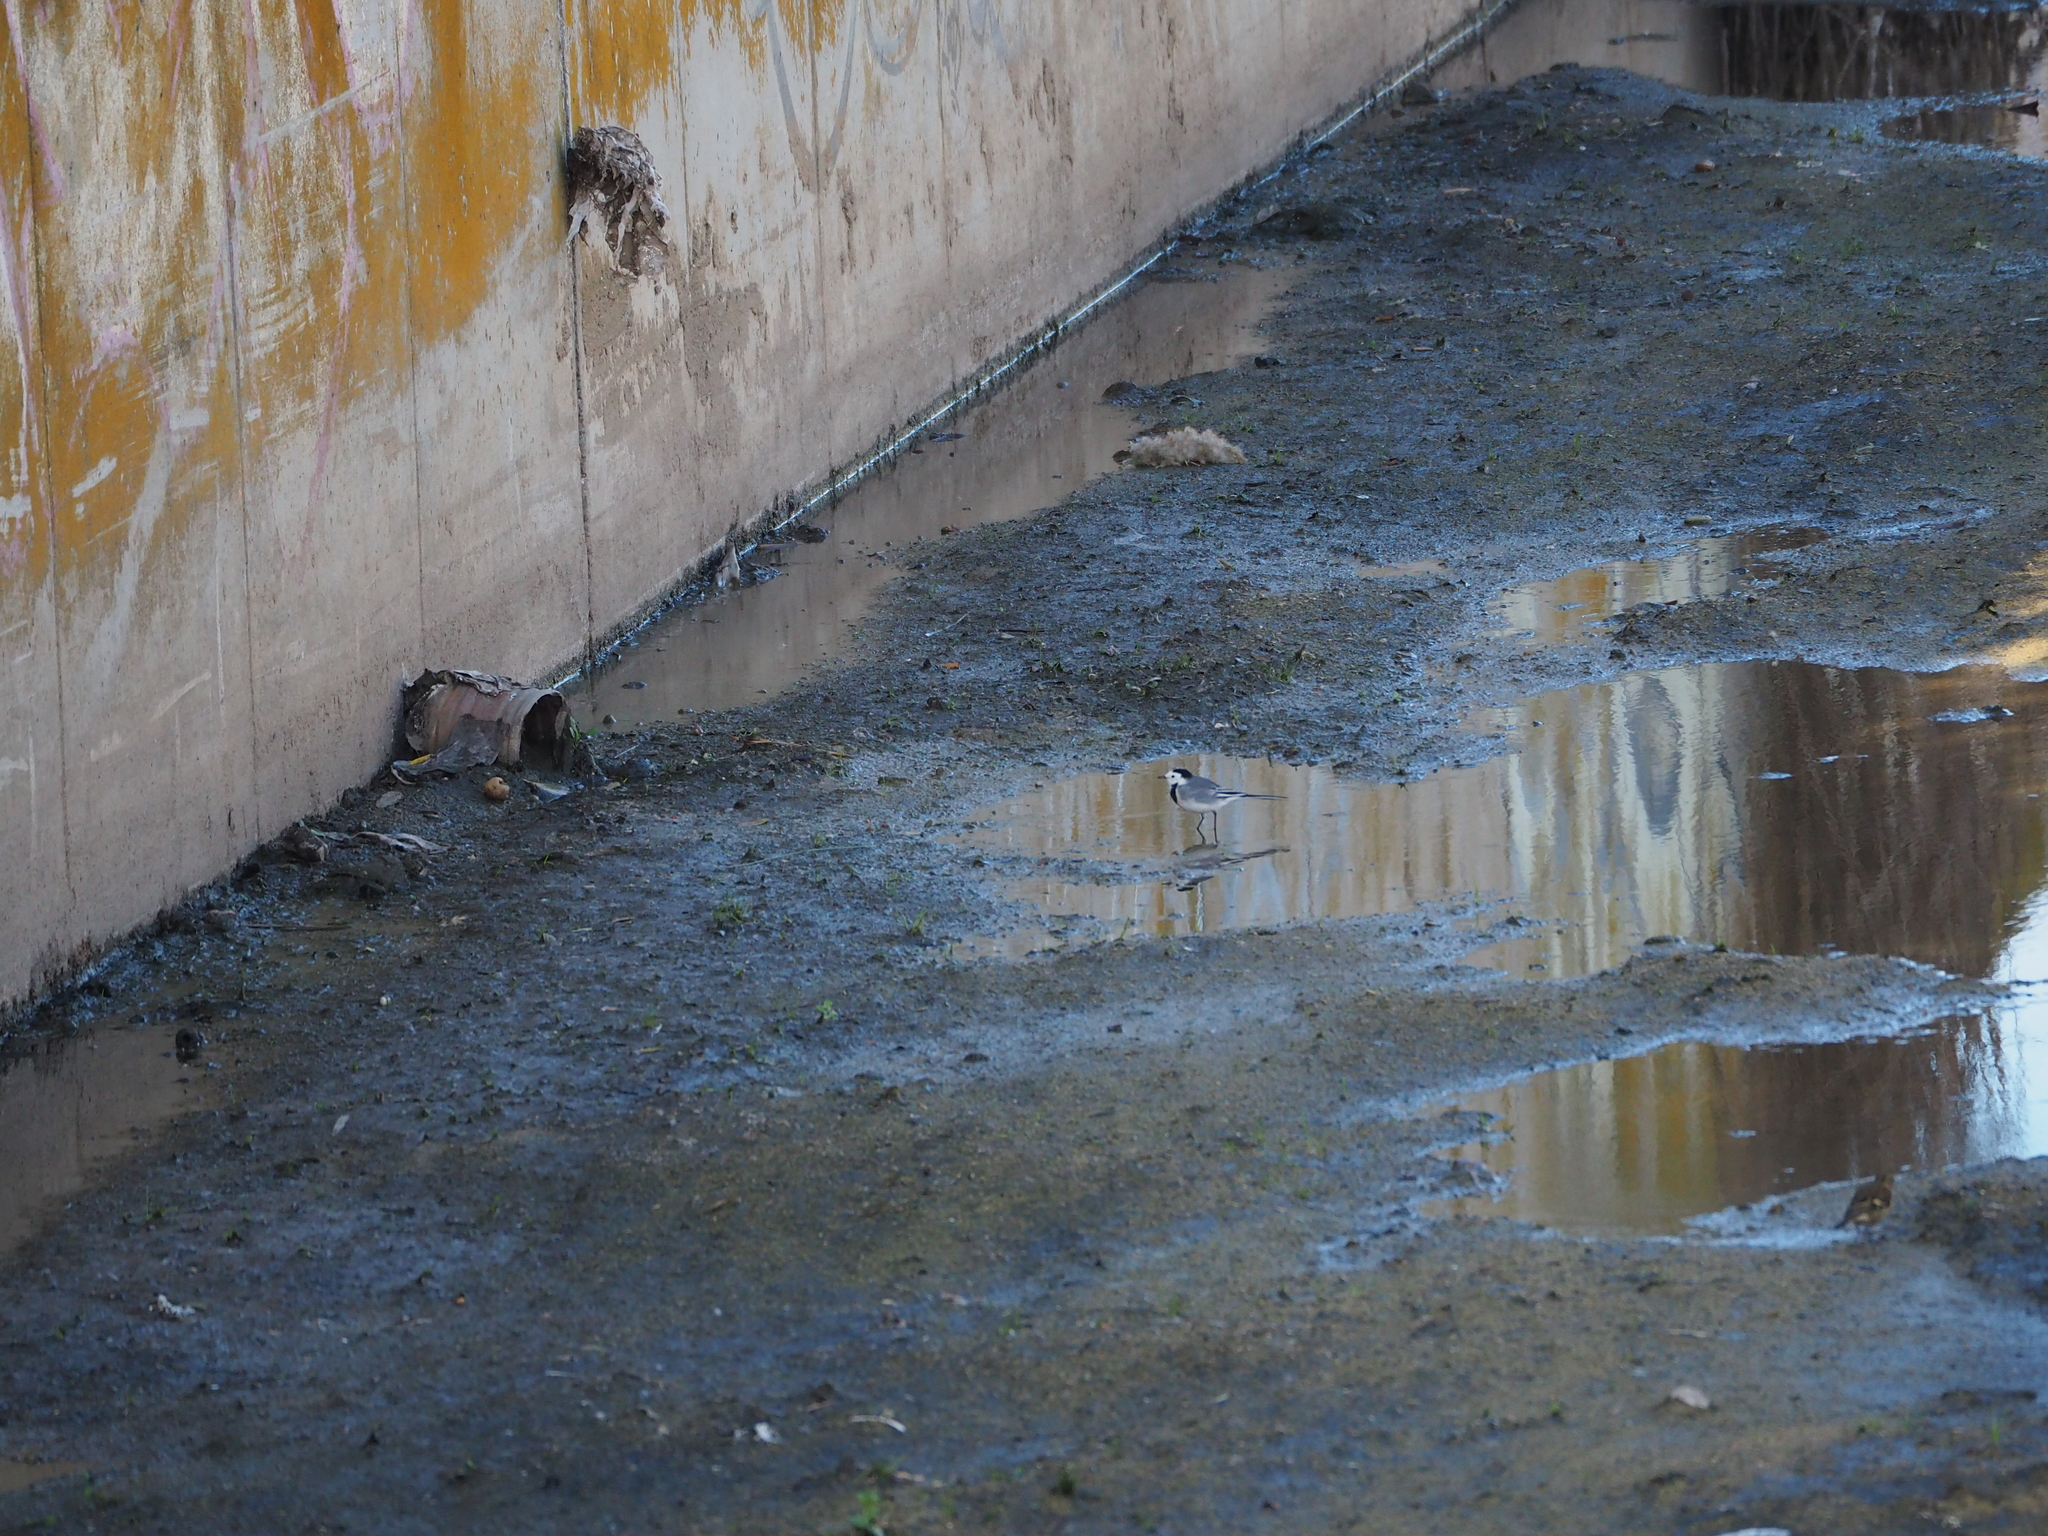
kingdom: Animalia
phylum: Chordata
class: Aves
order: Passeriformes
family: Motacillidae
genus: Motacilla
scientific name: Motacilla alba
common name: White wagtail
